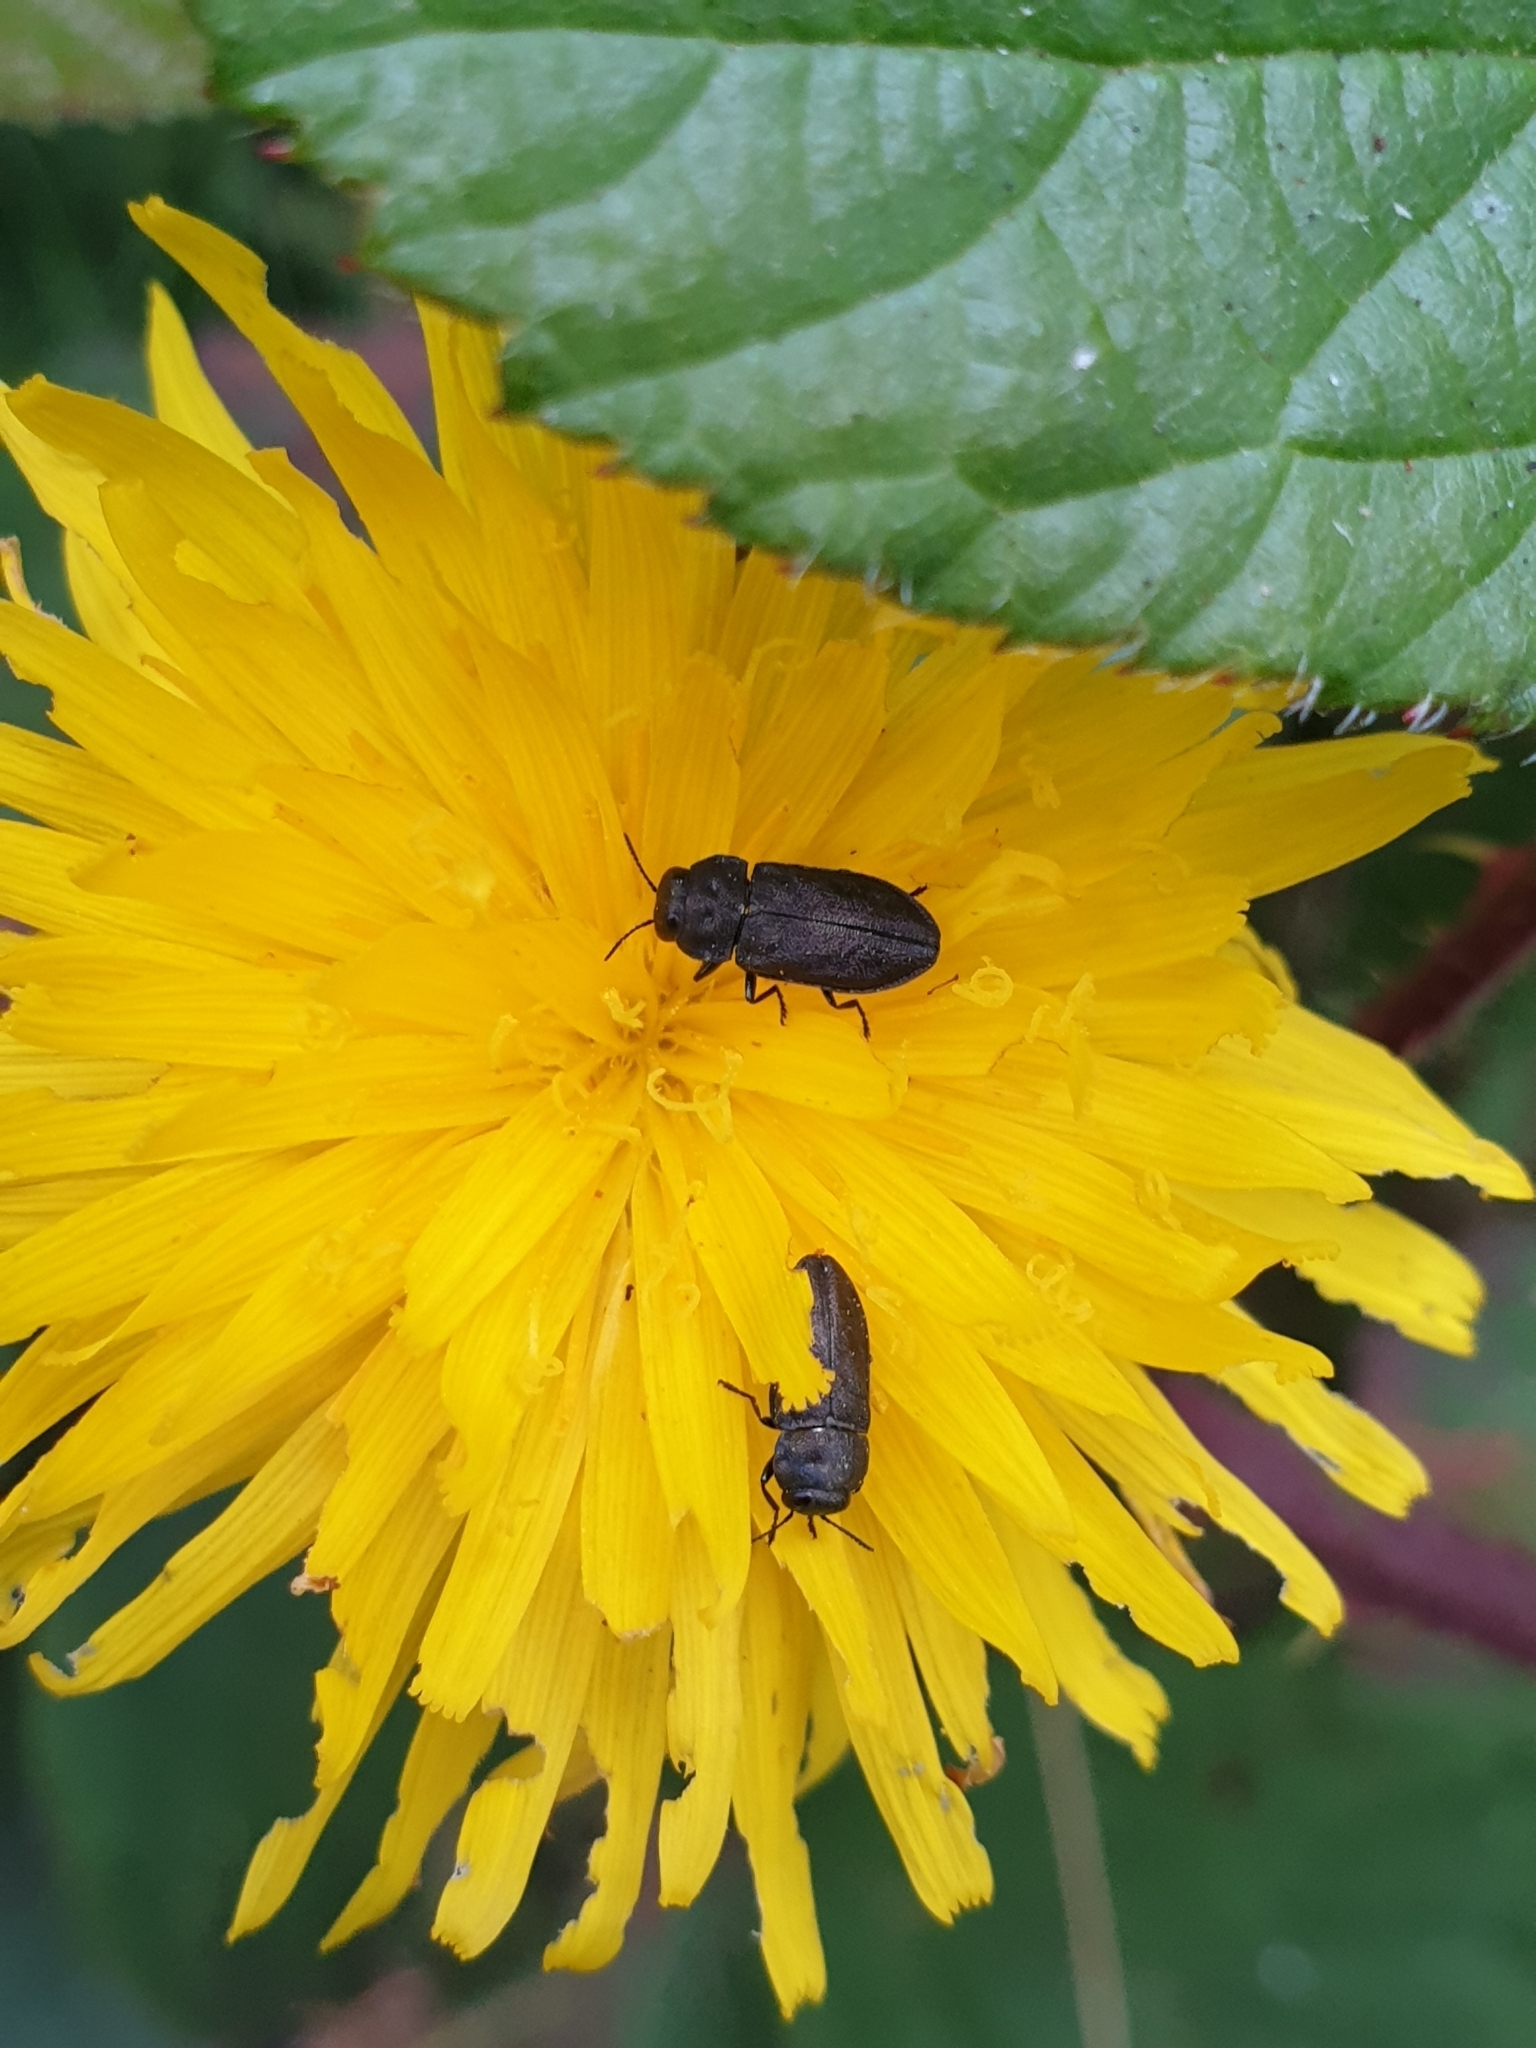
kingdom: Animalia
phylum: Arthropoda
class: Insecta
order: Coleoptera
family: Buprestidae
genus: Anthaxia
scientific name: Anthaxia quadripunctata
